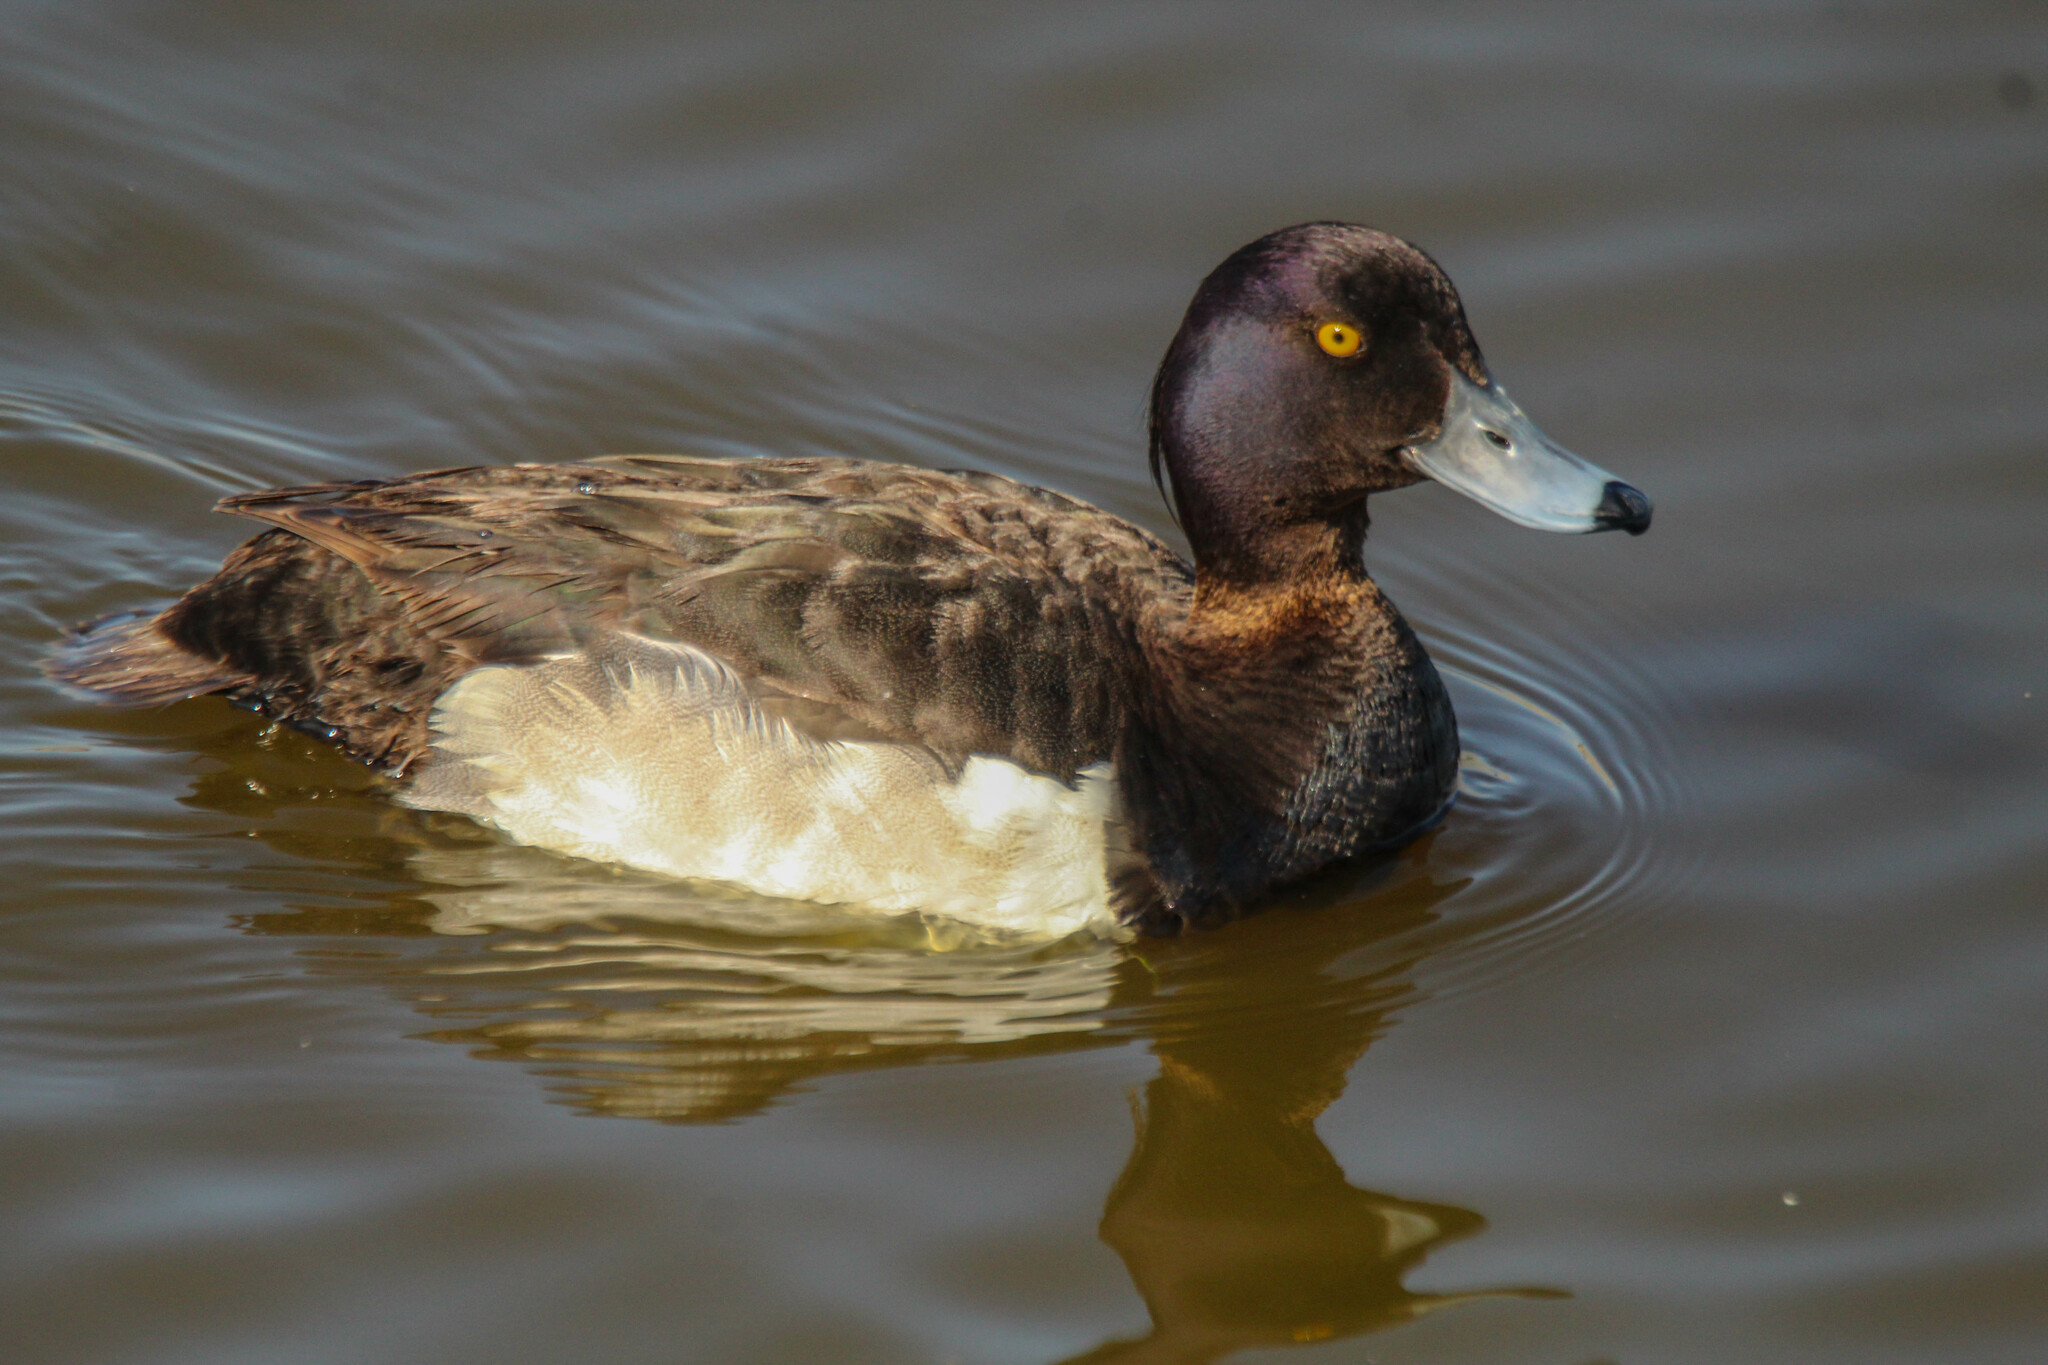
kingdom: Animalia
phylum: Chordata
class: Aves
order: Anseriformes
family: Anatidae
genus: Aythya
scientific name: Aythya fuligula
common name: Tufted duck
